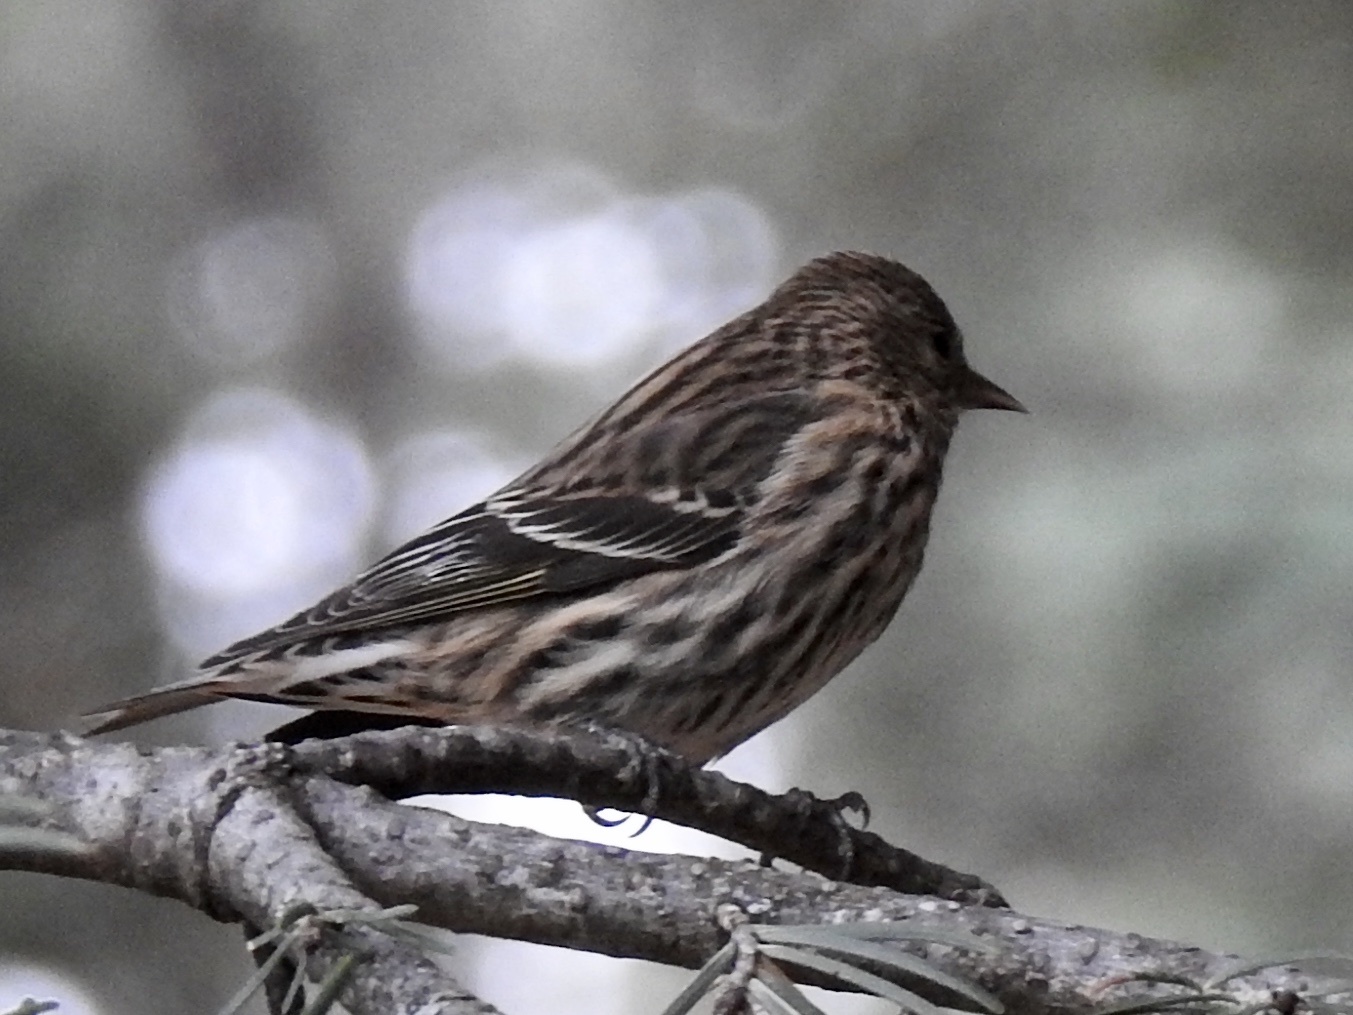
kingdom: Animalia
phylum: Chordata
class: Aves
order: Passeriformes
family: Fringillidae
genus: Spinus
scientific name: Spinus pinus
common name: Pine siskin
